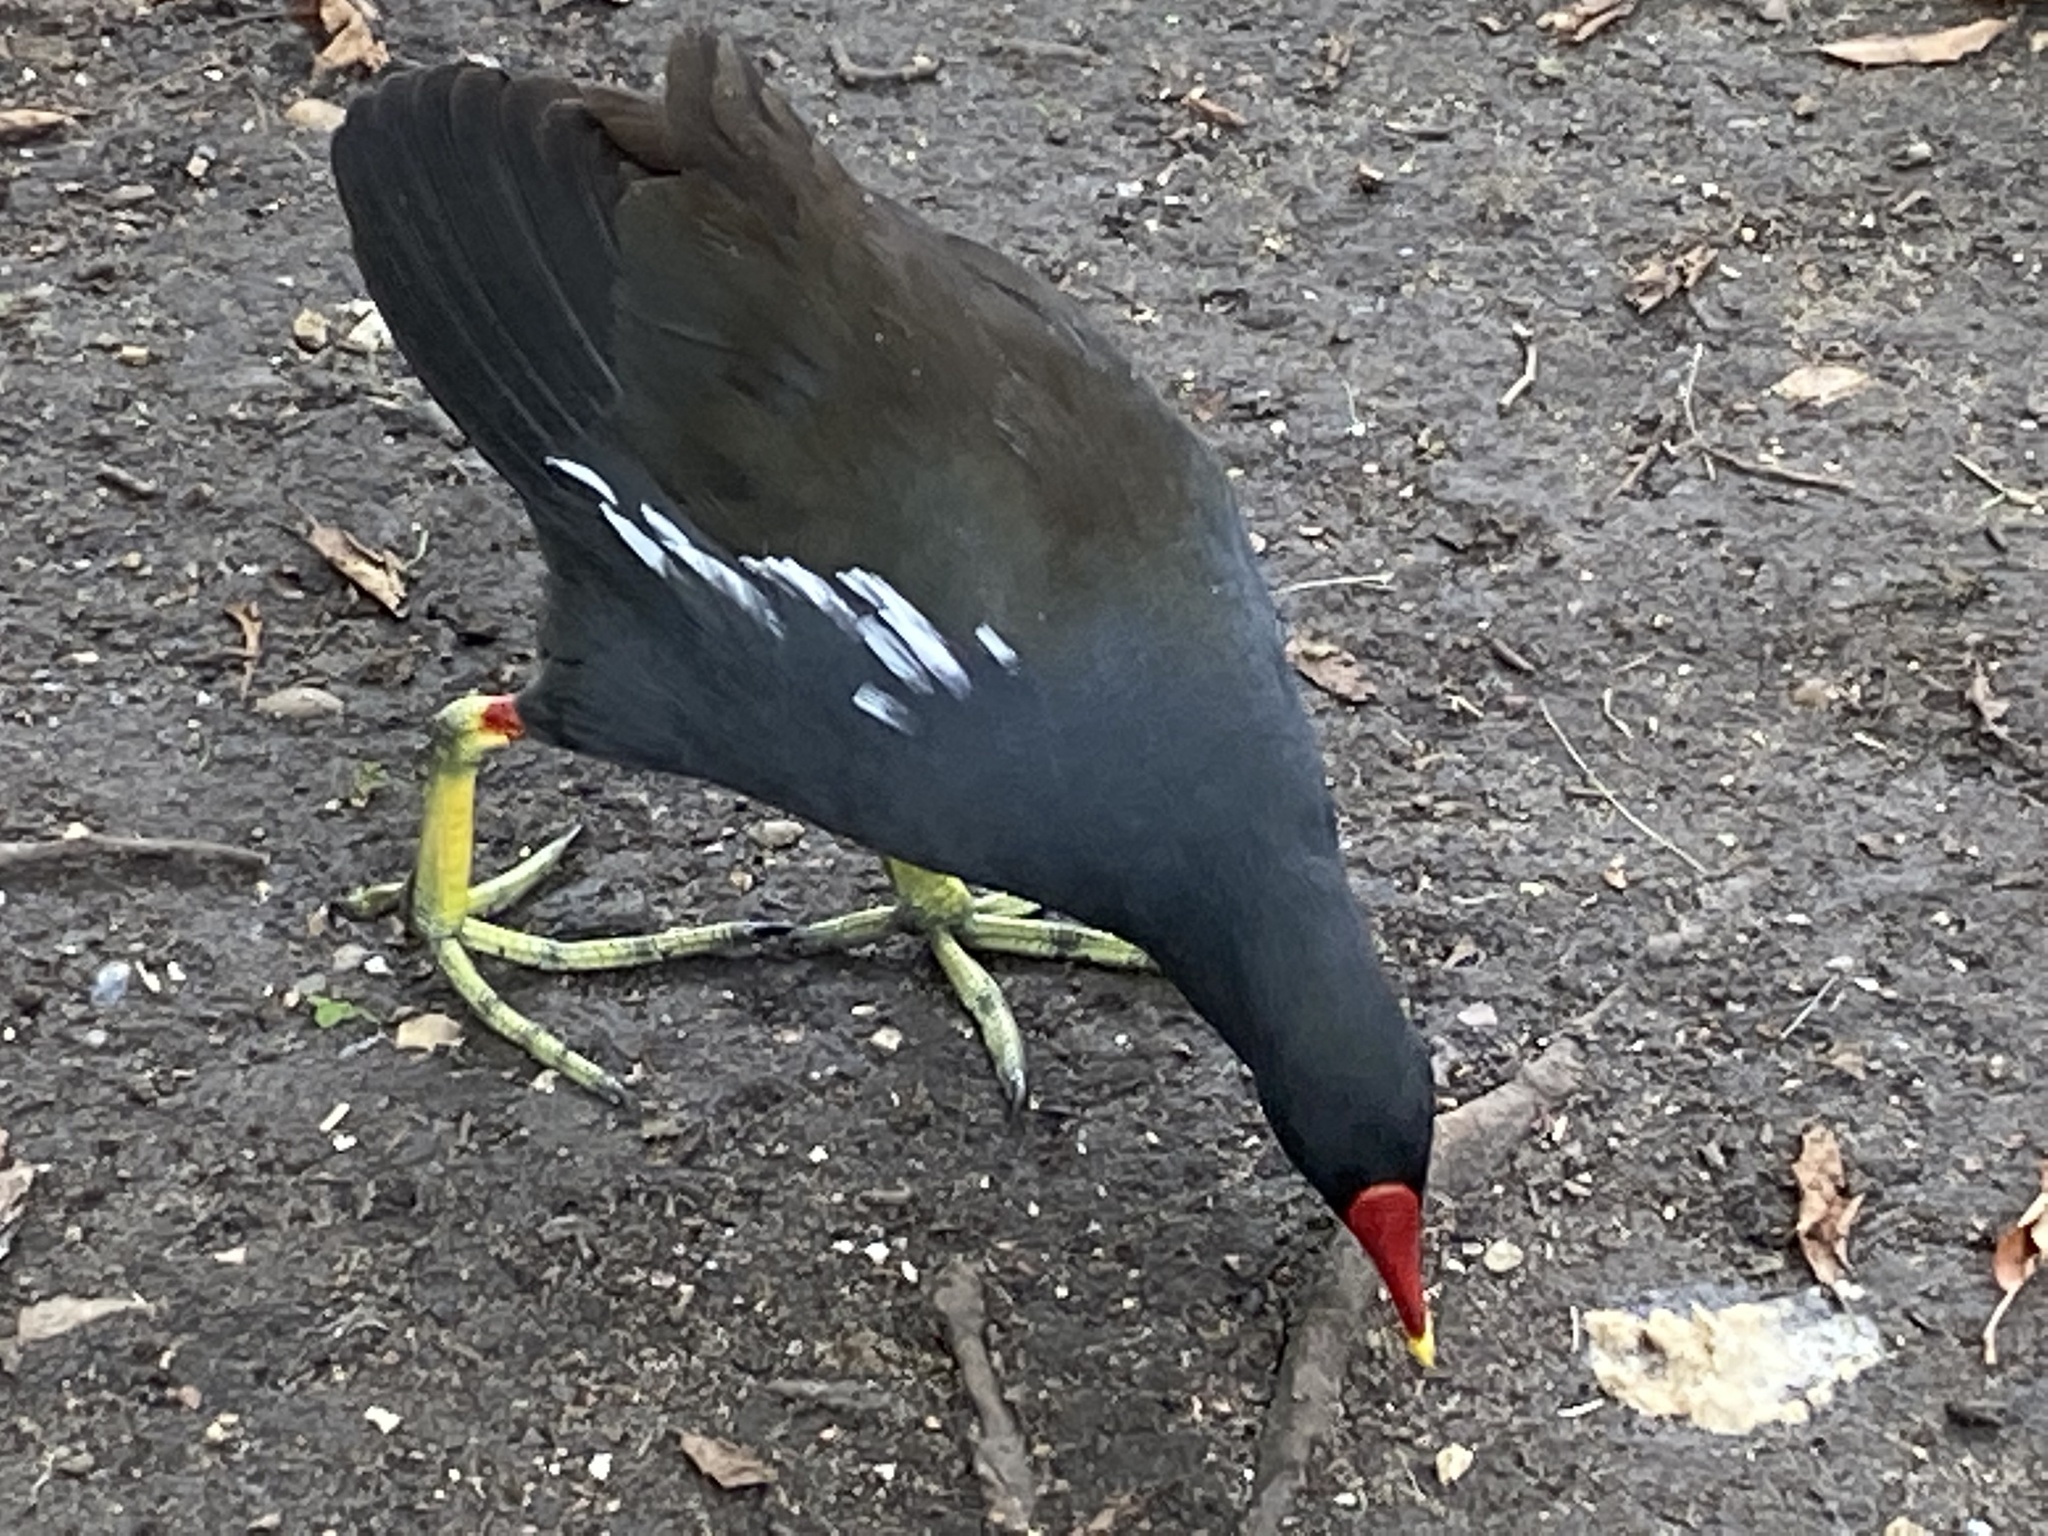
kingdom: Animalia
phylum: Chordata
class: Aves
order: Gruiformes
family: Rallidae
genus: Gallinula
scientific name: Gallinula chloropus
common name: Common moorhen
